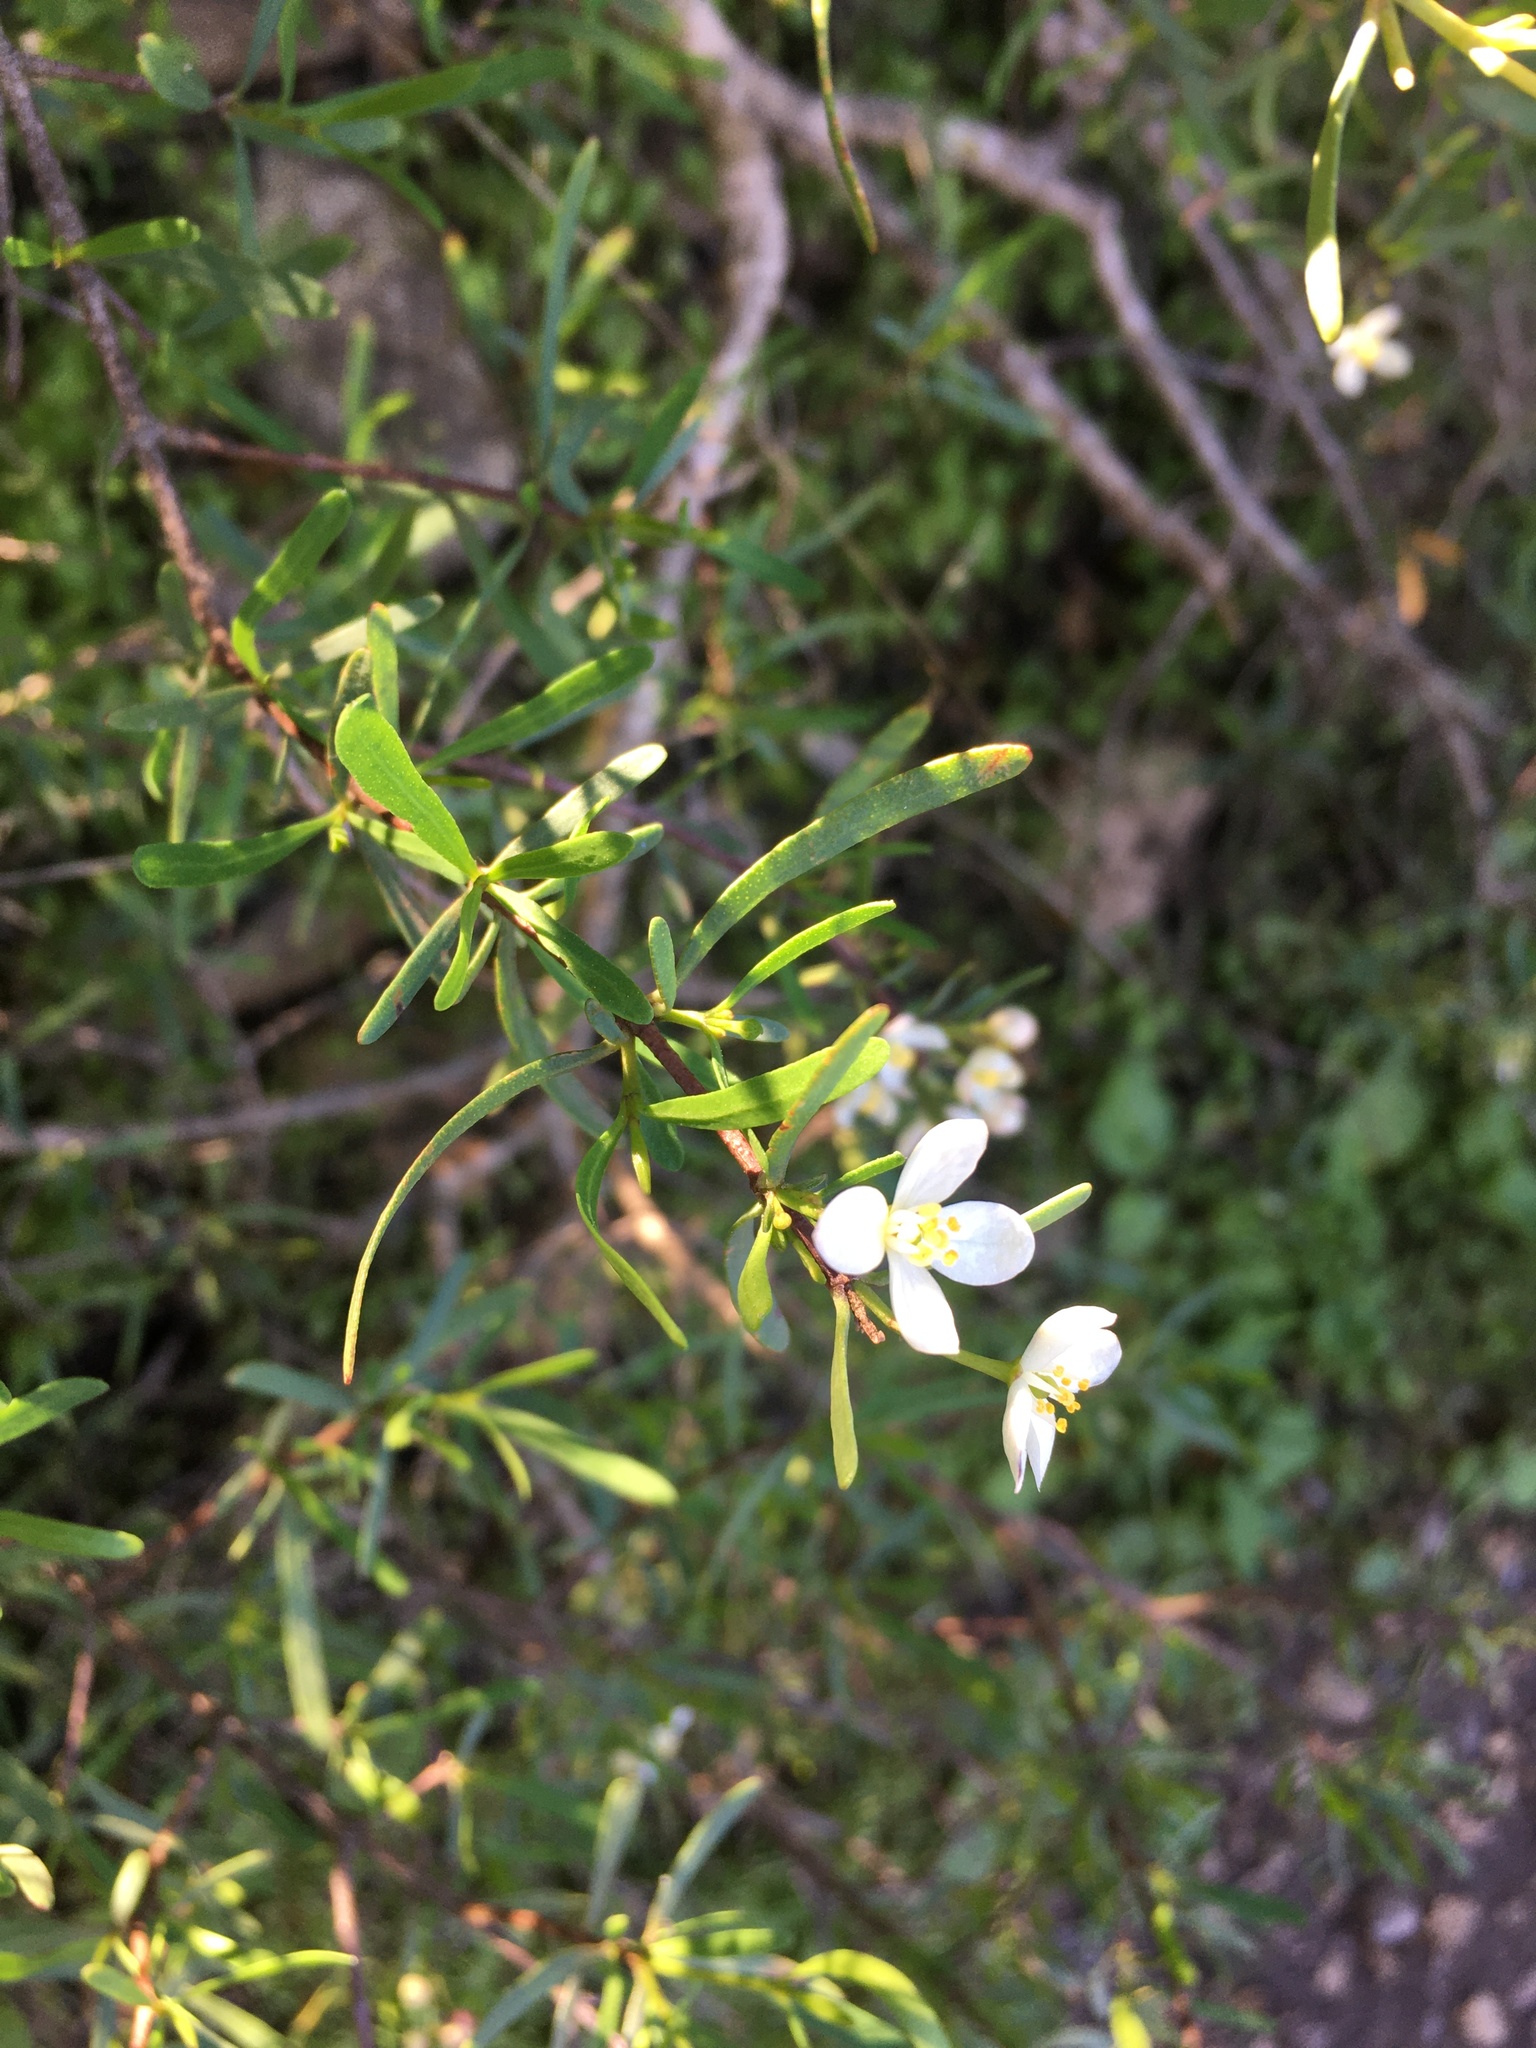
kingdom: Plantae
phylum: Tracheophyta
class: Magnoliopsida
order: Sapindales
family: Rutaceae
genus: Cneoridium
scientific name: Cneoridium dumosum
